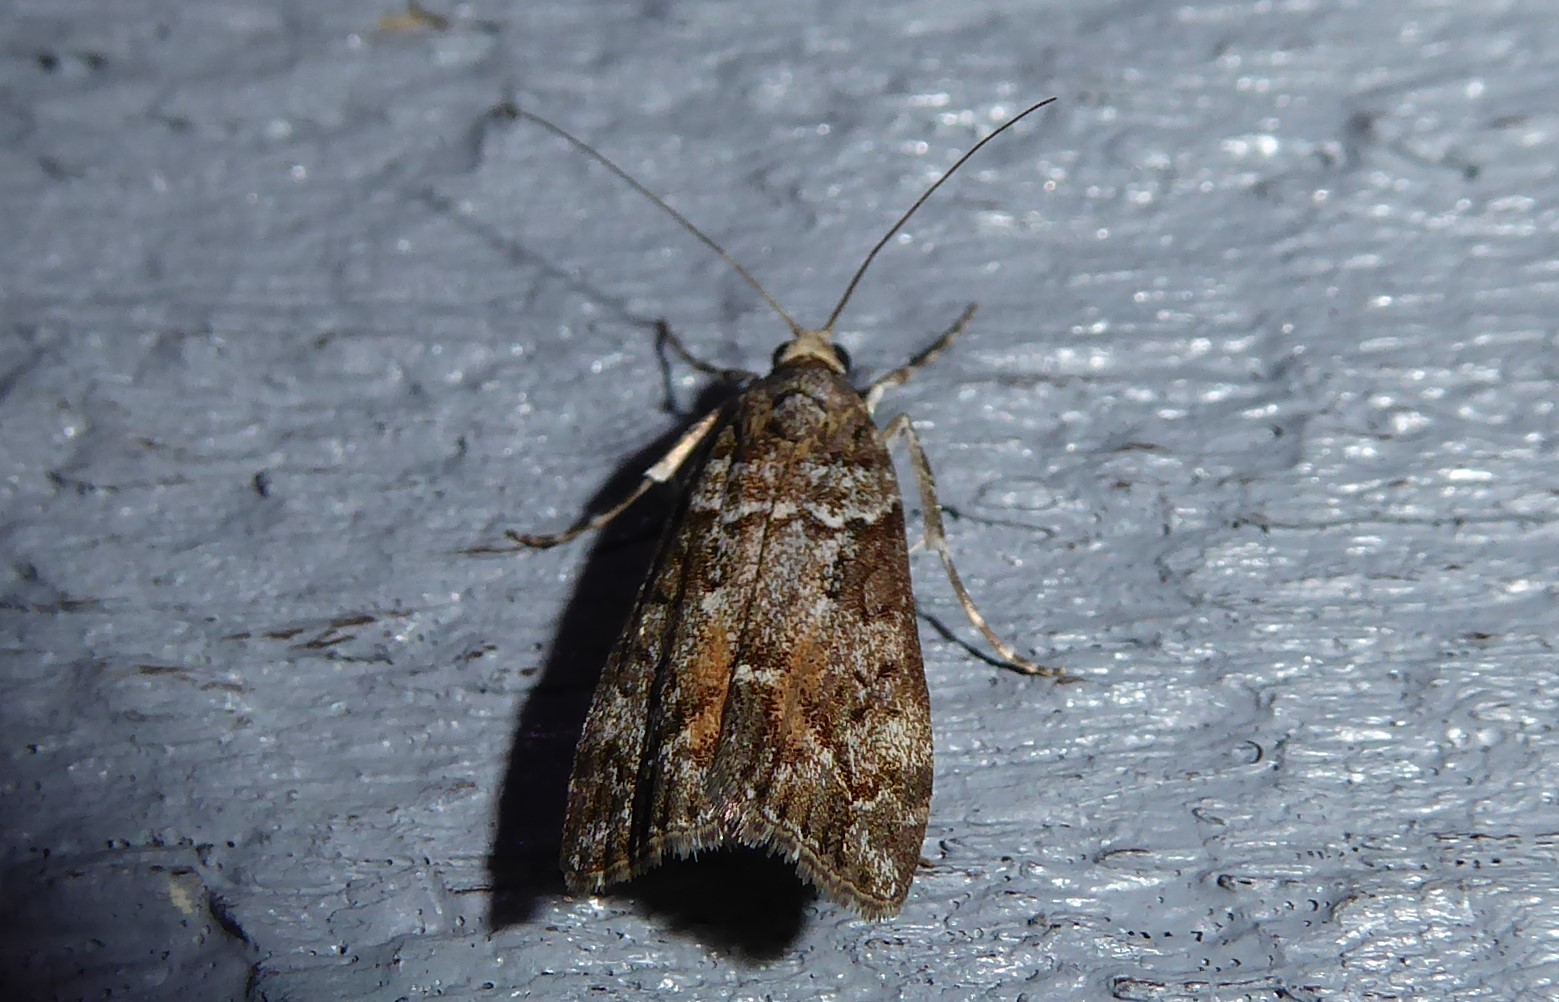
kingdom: Animalia
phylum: Arthropoda
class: Insecta
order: Lepidoptera
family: Crambidae
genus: Eudonia
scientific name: Eudonia submarginalis
